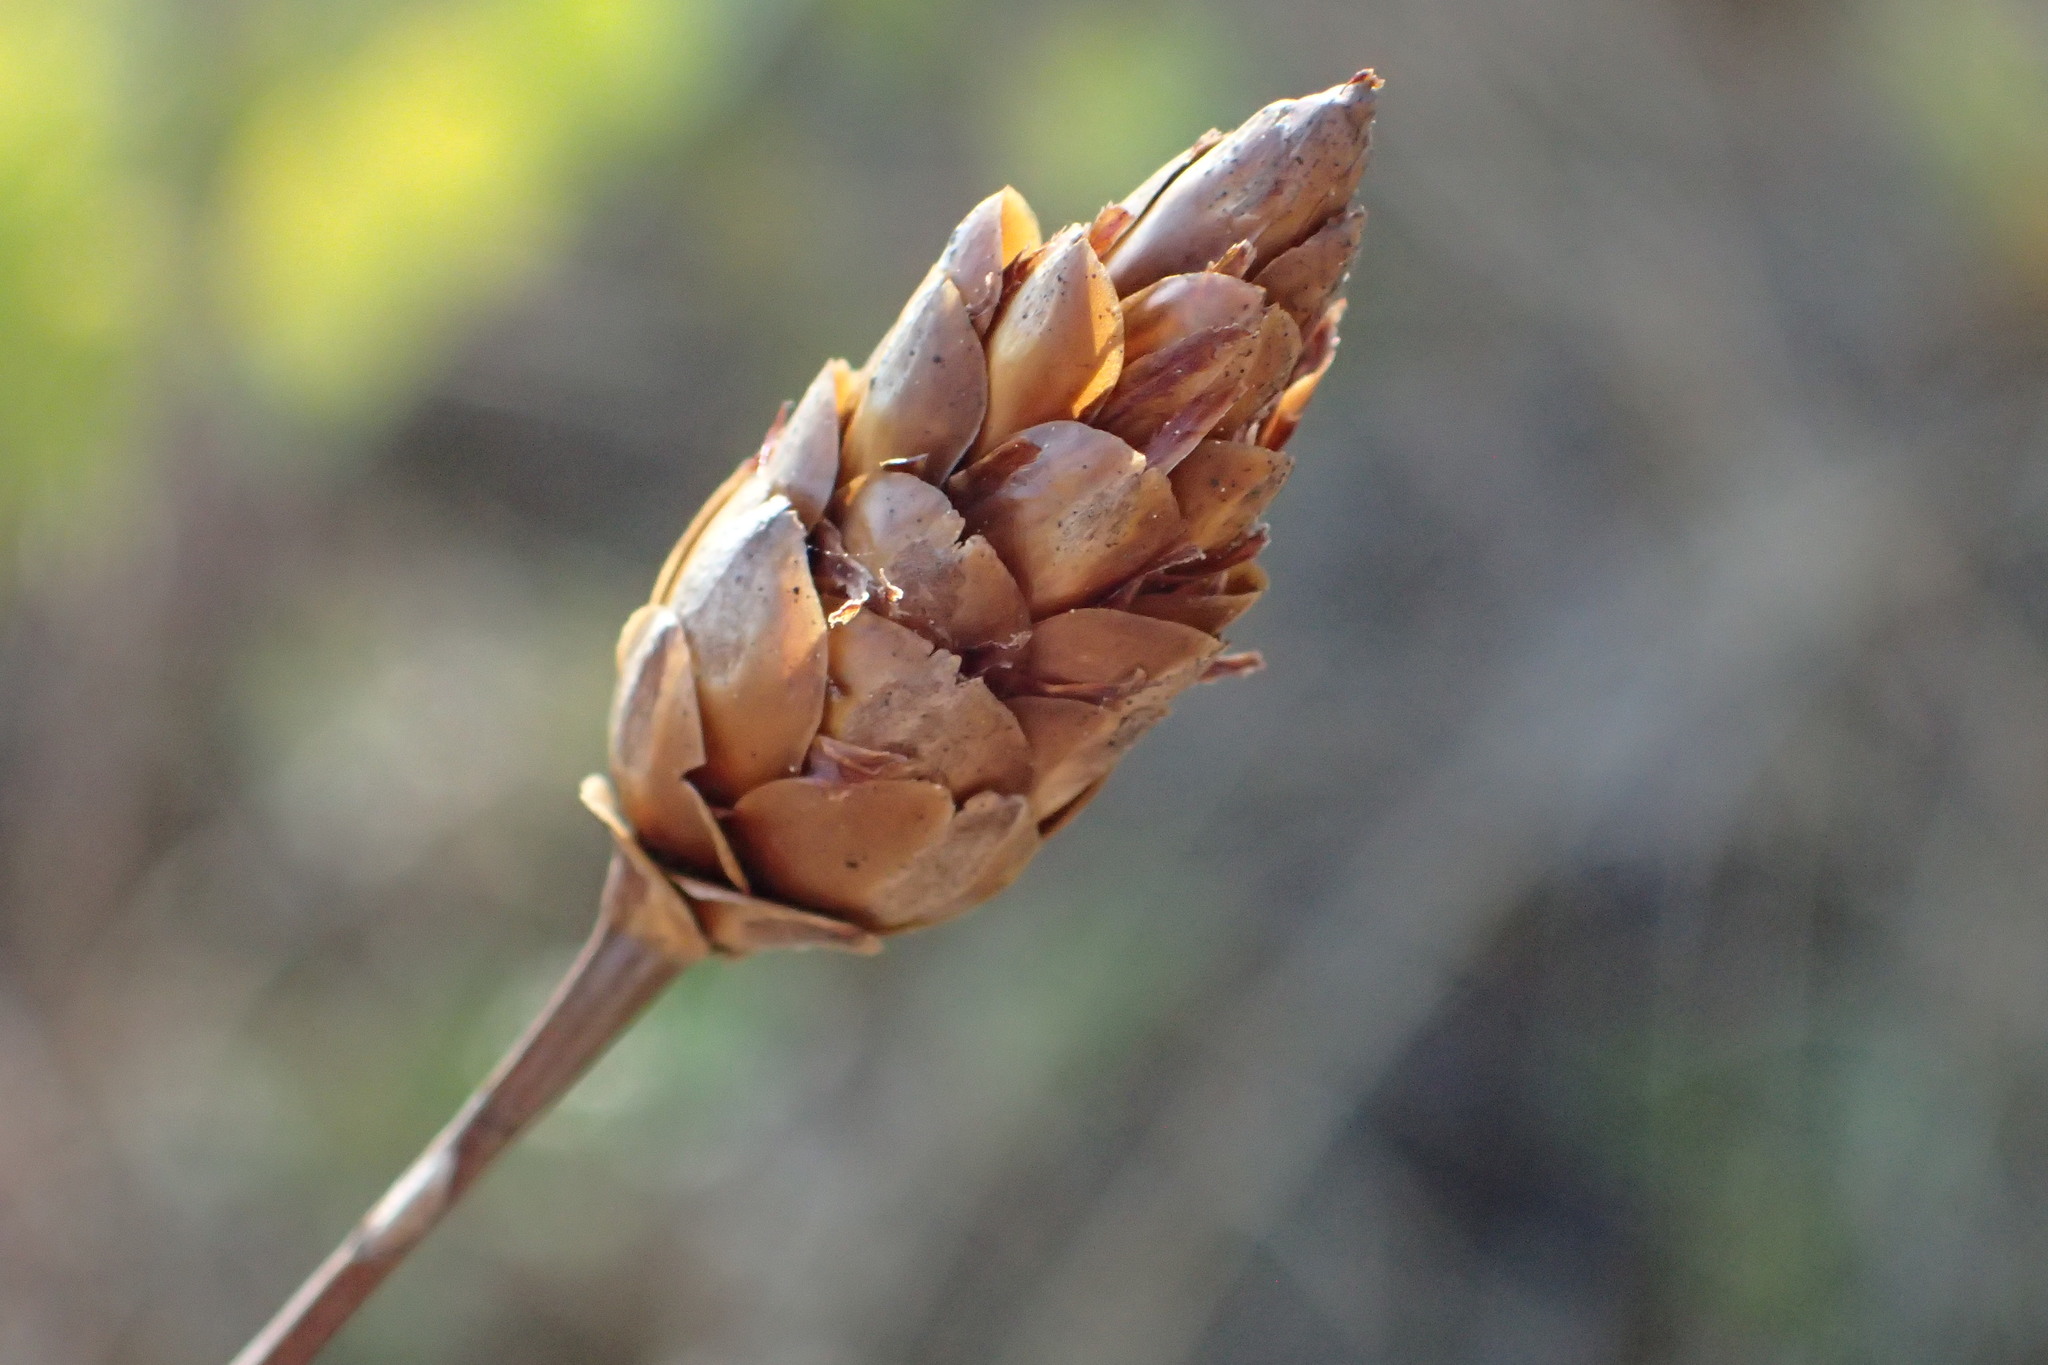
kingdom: Plantae
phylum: Tracheophyta
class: Liliopsida
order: Poales
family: Xyridaceae
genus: Xyris
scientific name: Xyris caroliniana
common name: Carolina yellow-eyed-grass
